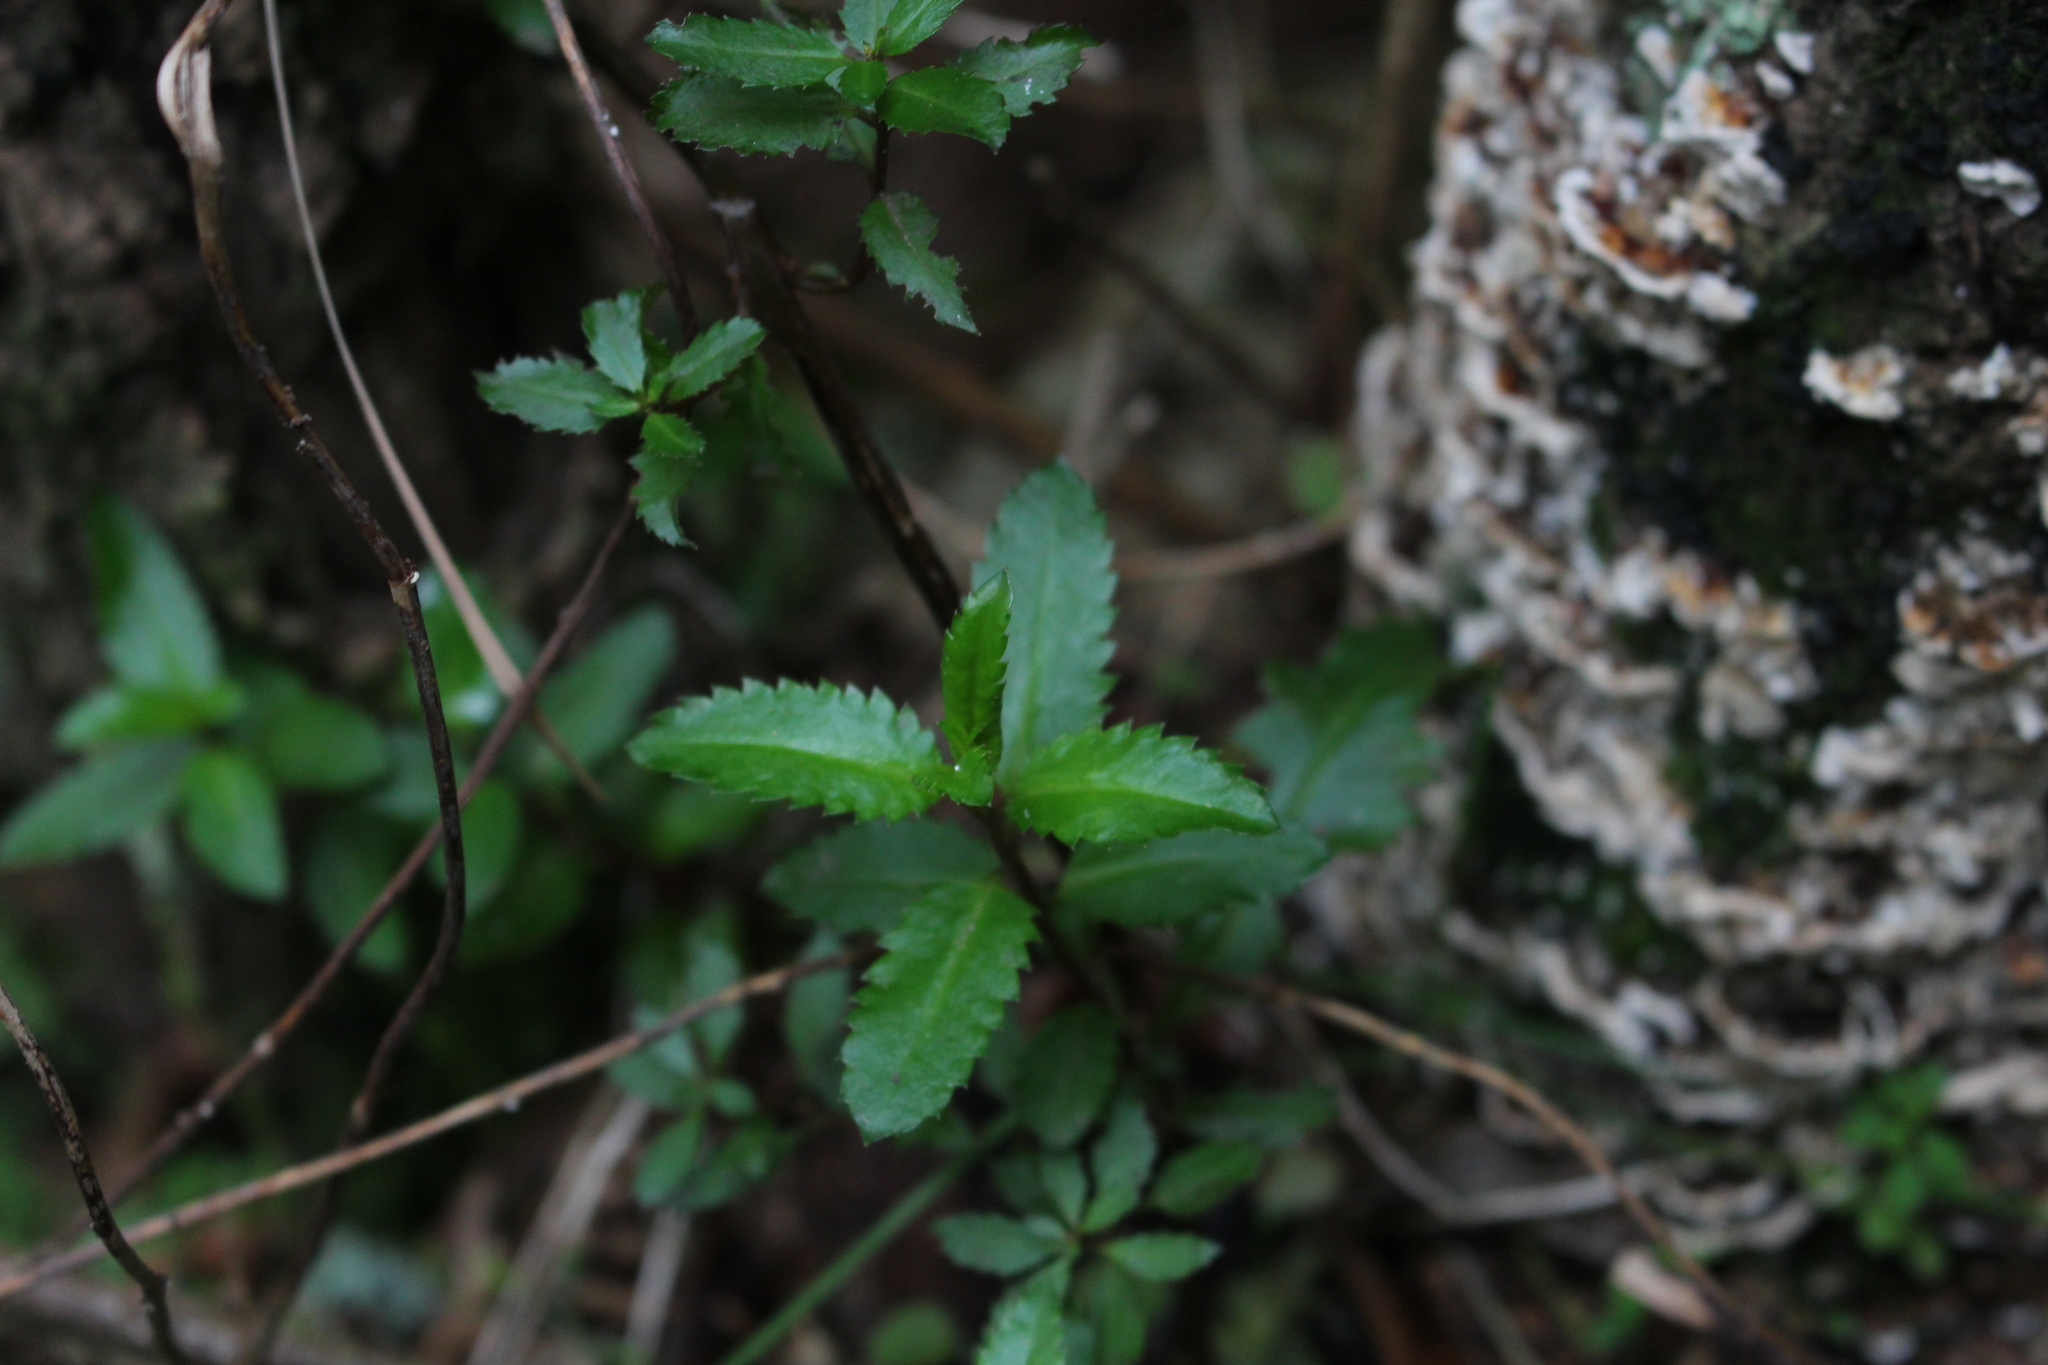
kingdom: Plantae
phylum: Tracheophyta
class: Magnoliopsida
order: Saxifragales
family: Haloragaceae
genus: Haloragis
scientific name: Haloragis erecta
